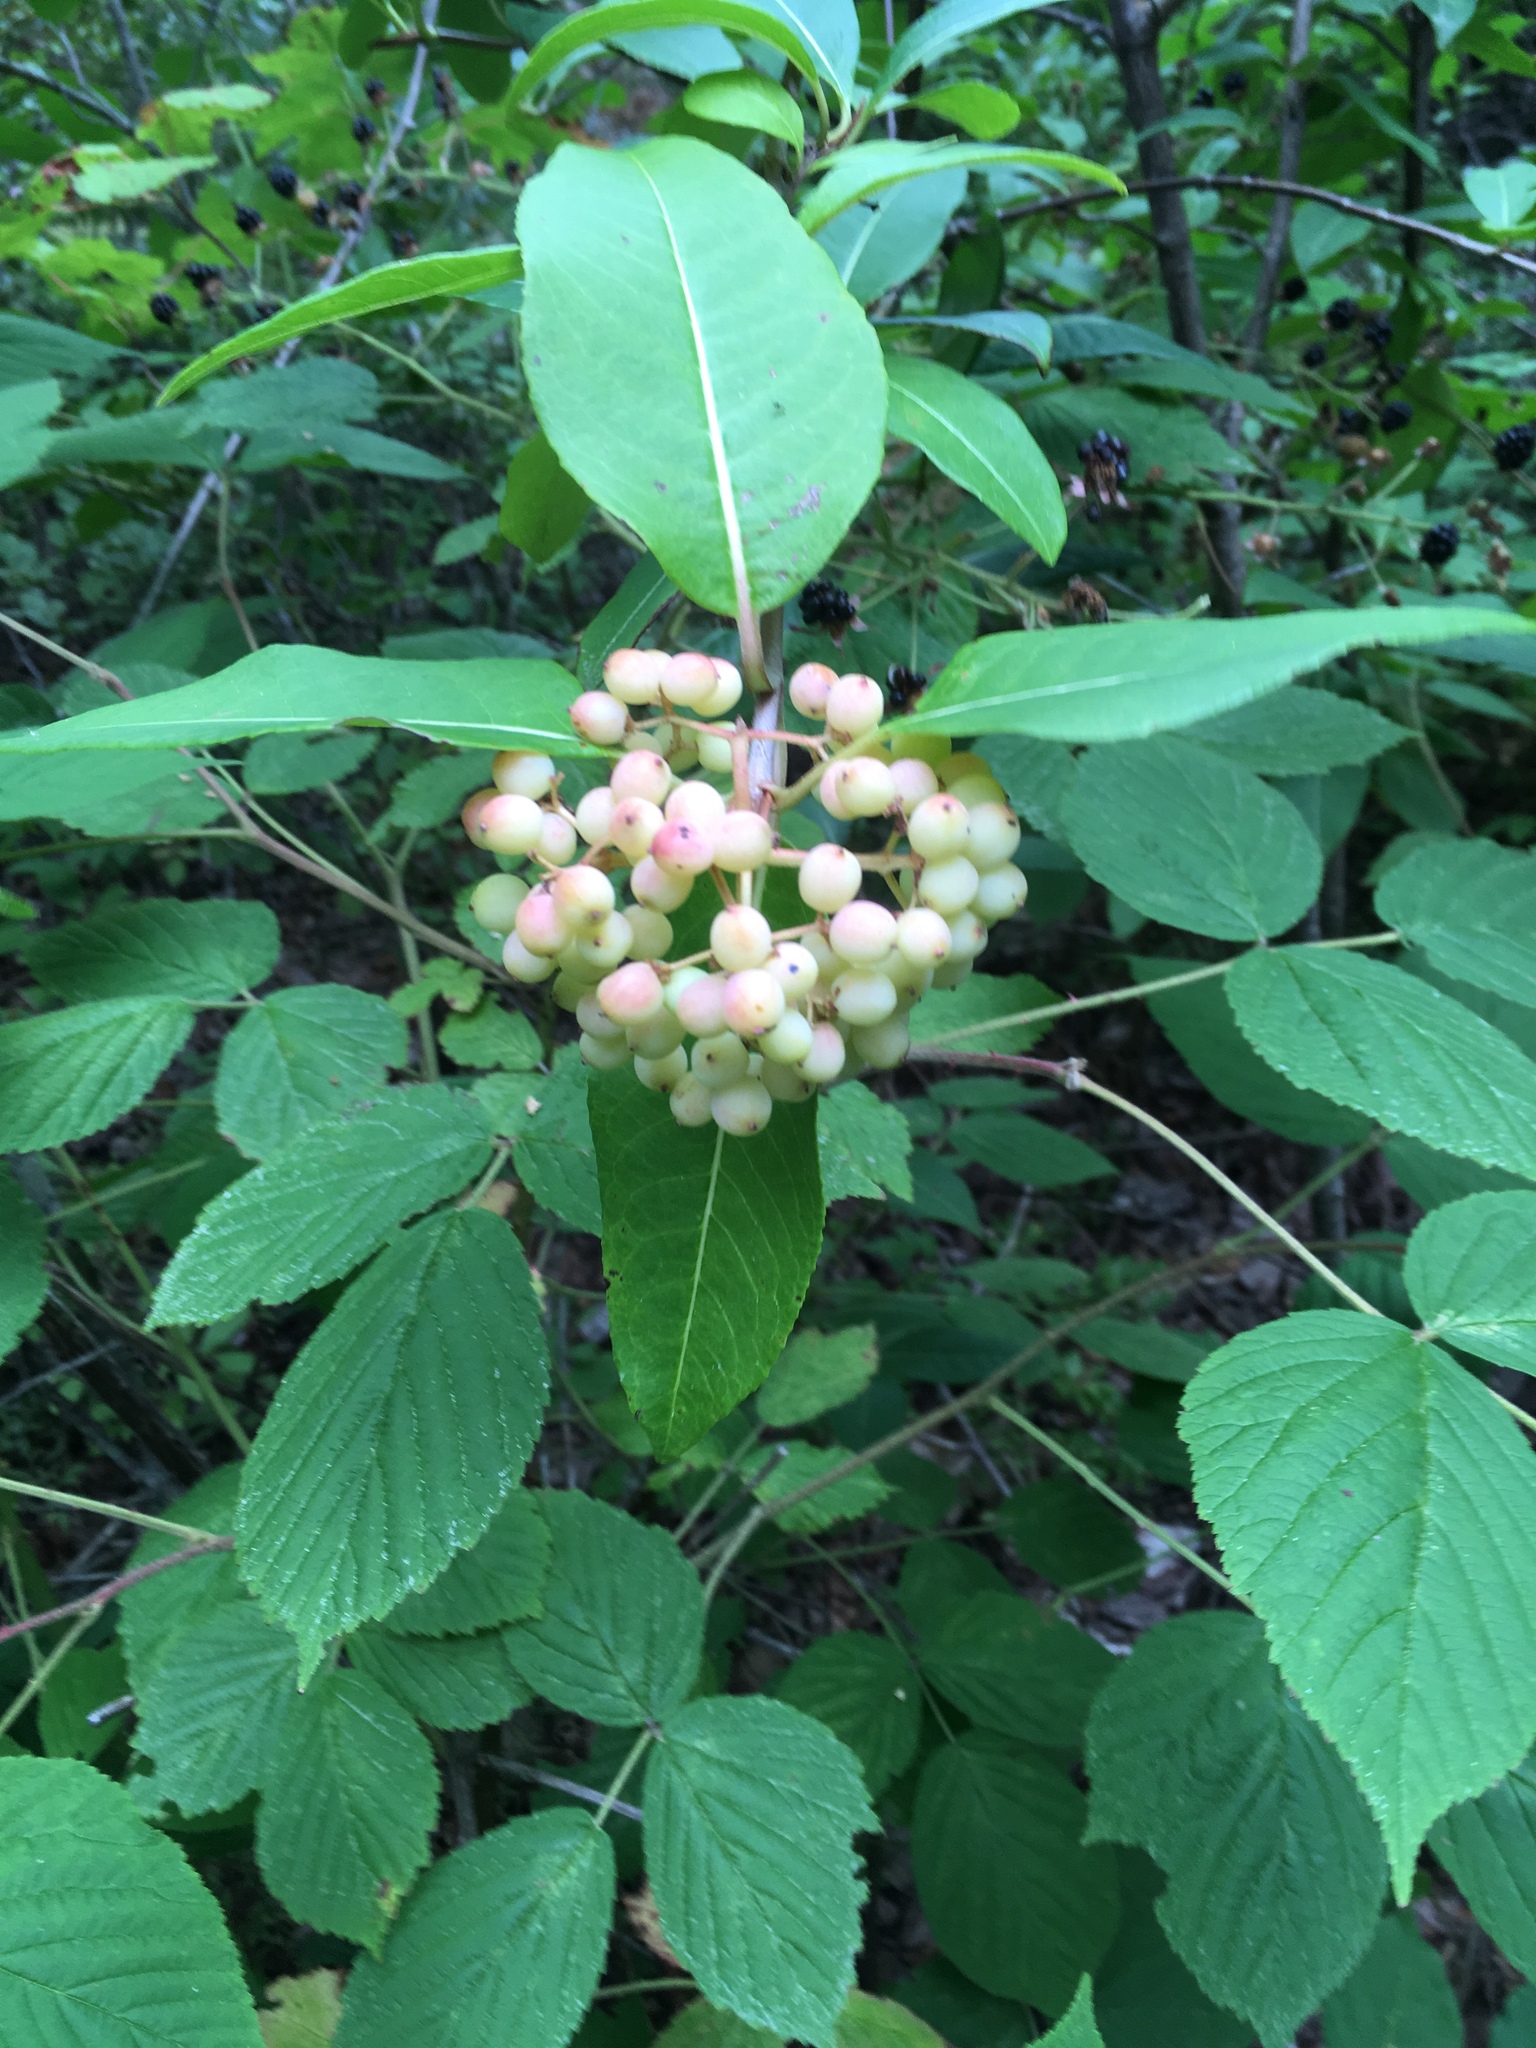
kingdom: Plantae
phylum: Tracheophyta
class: Magnoliopsida
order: Dipsacales
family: Viburnaceae
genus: Viburnum
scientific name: Viburnum cassinoides
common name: Swamp haw
